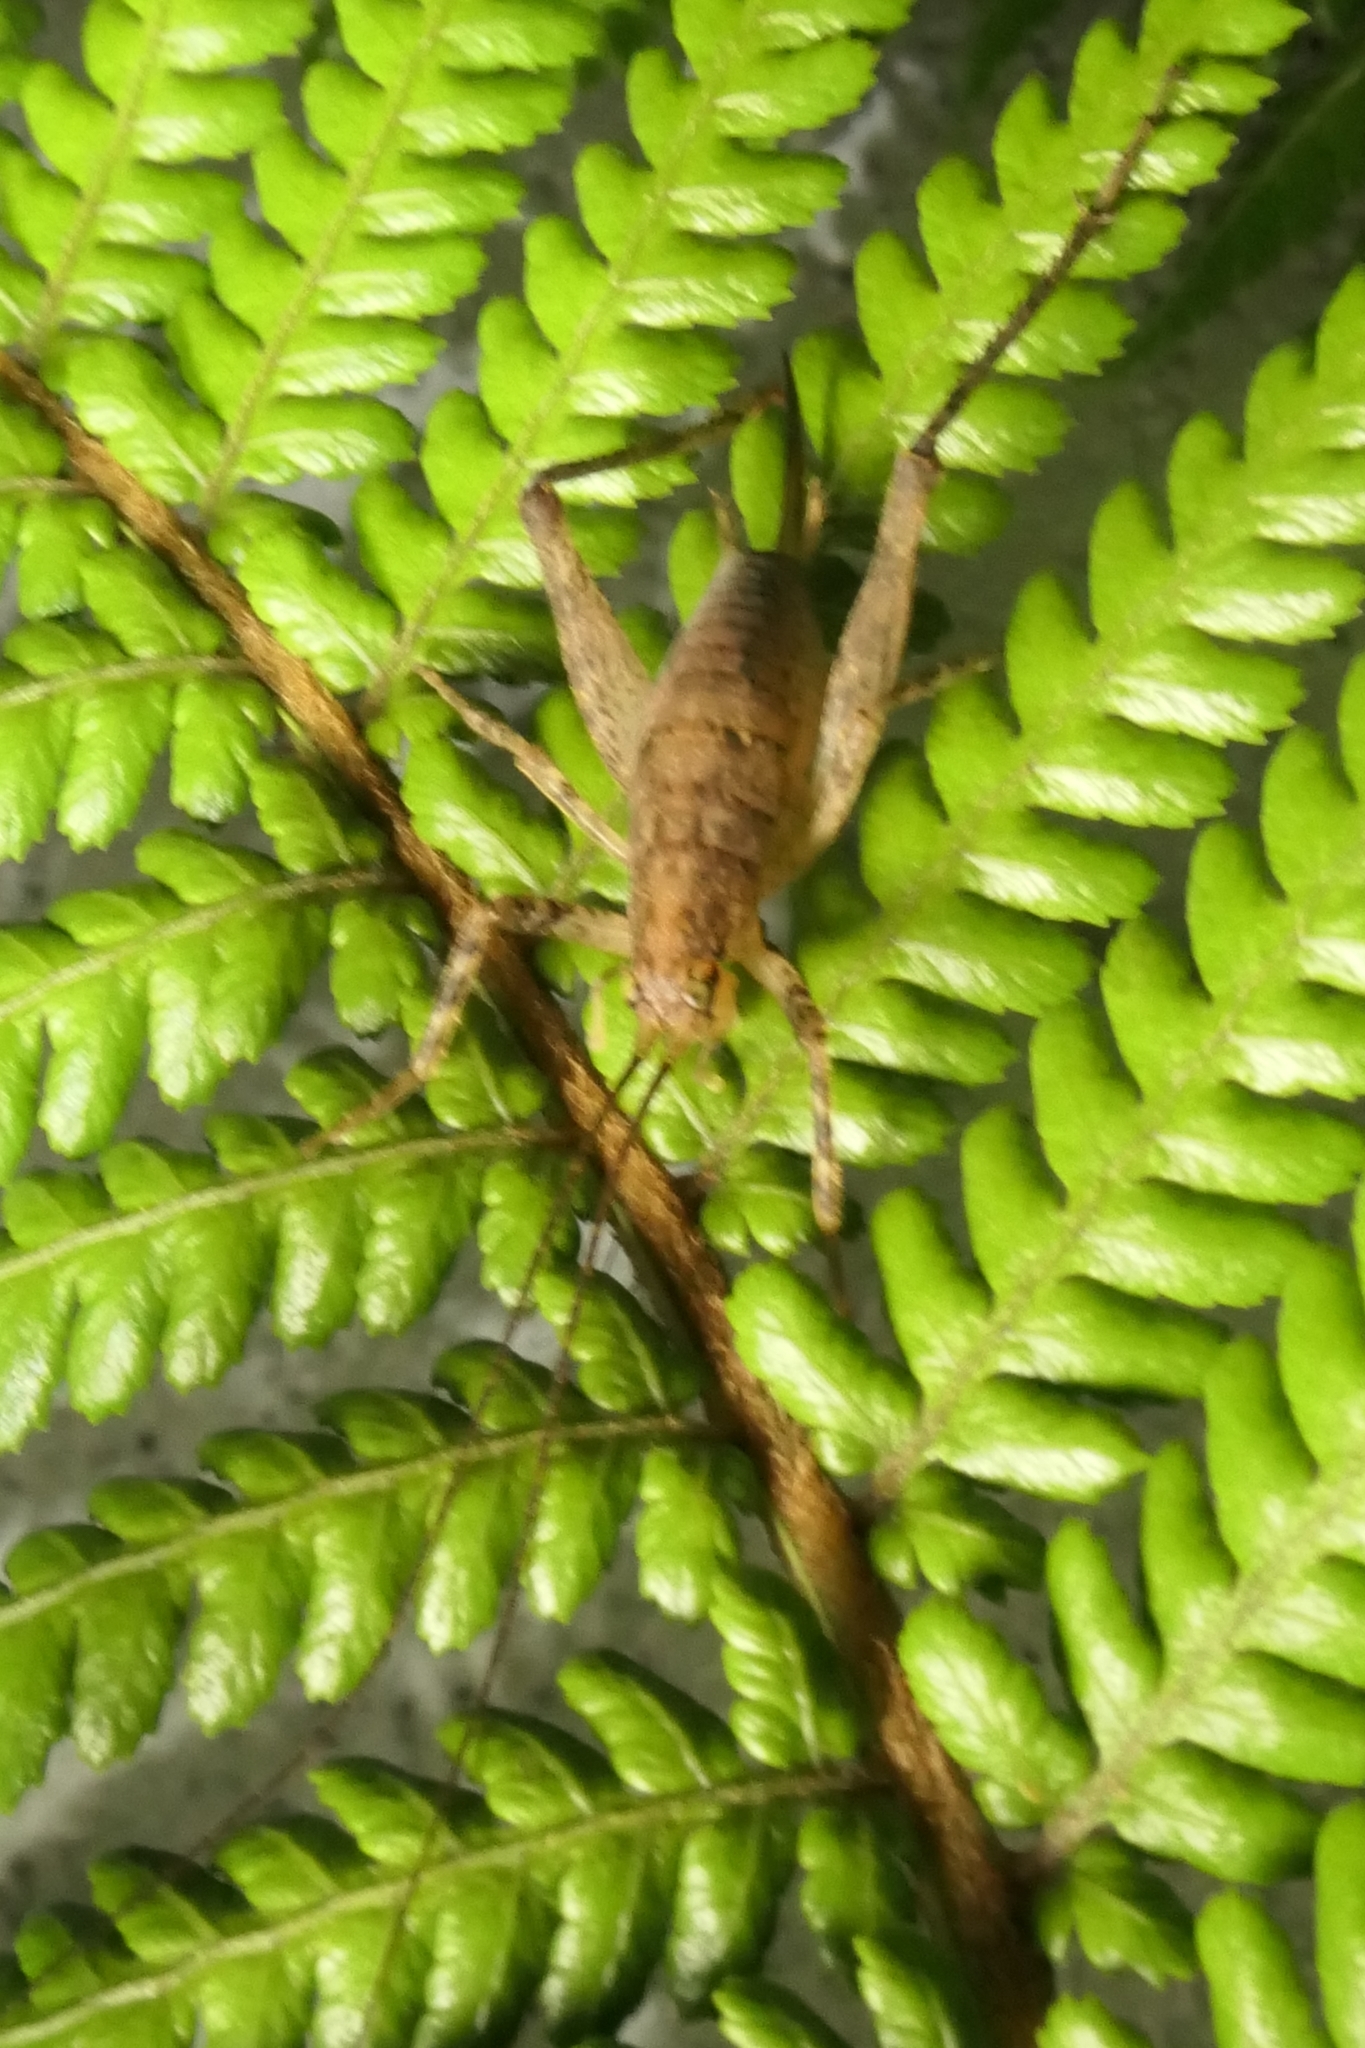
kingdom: Animalia
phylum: Arthropoda
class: Insecta
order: Orthoptera
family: Rhaphidophoridae
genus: Isoplectron
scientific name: Isoplectron armatum
